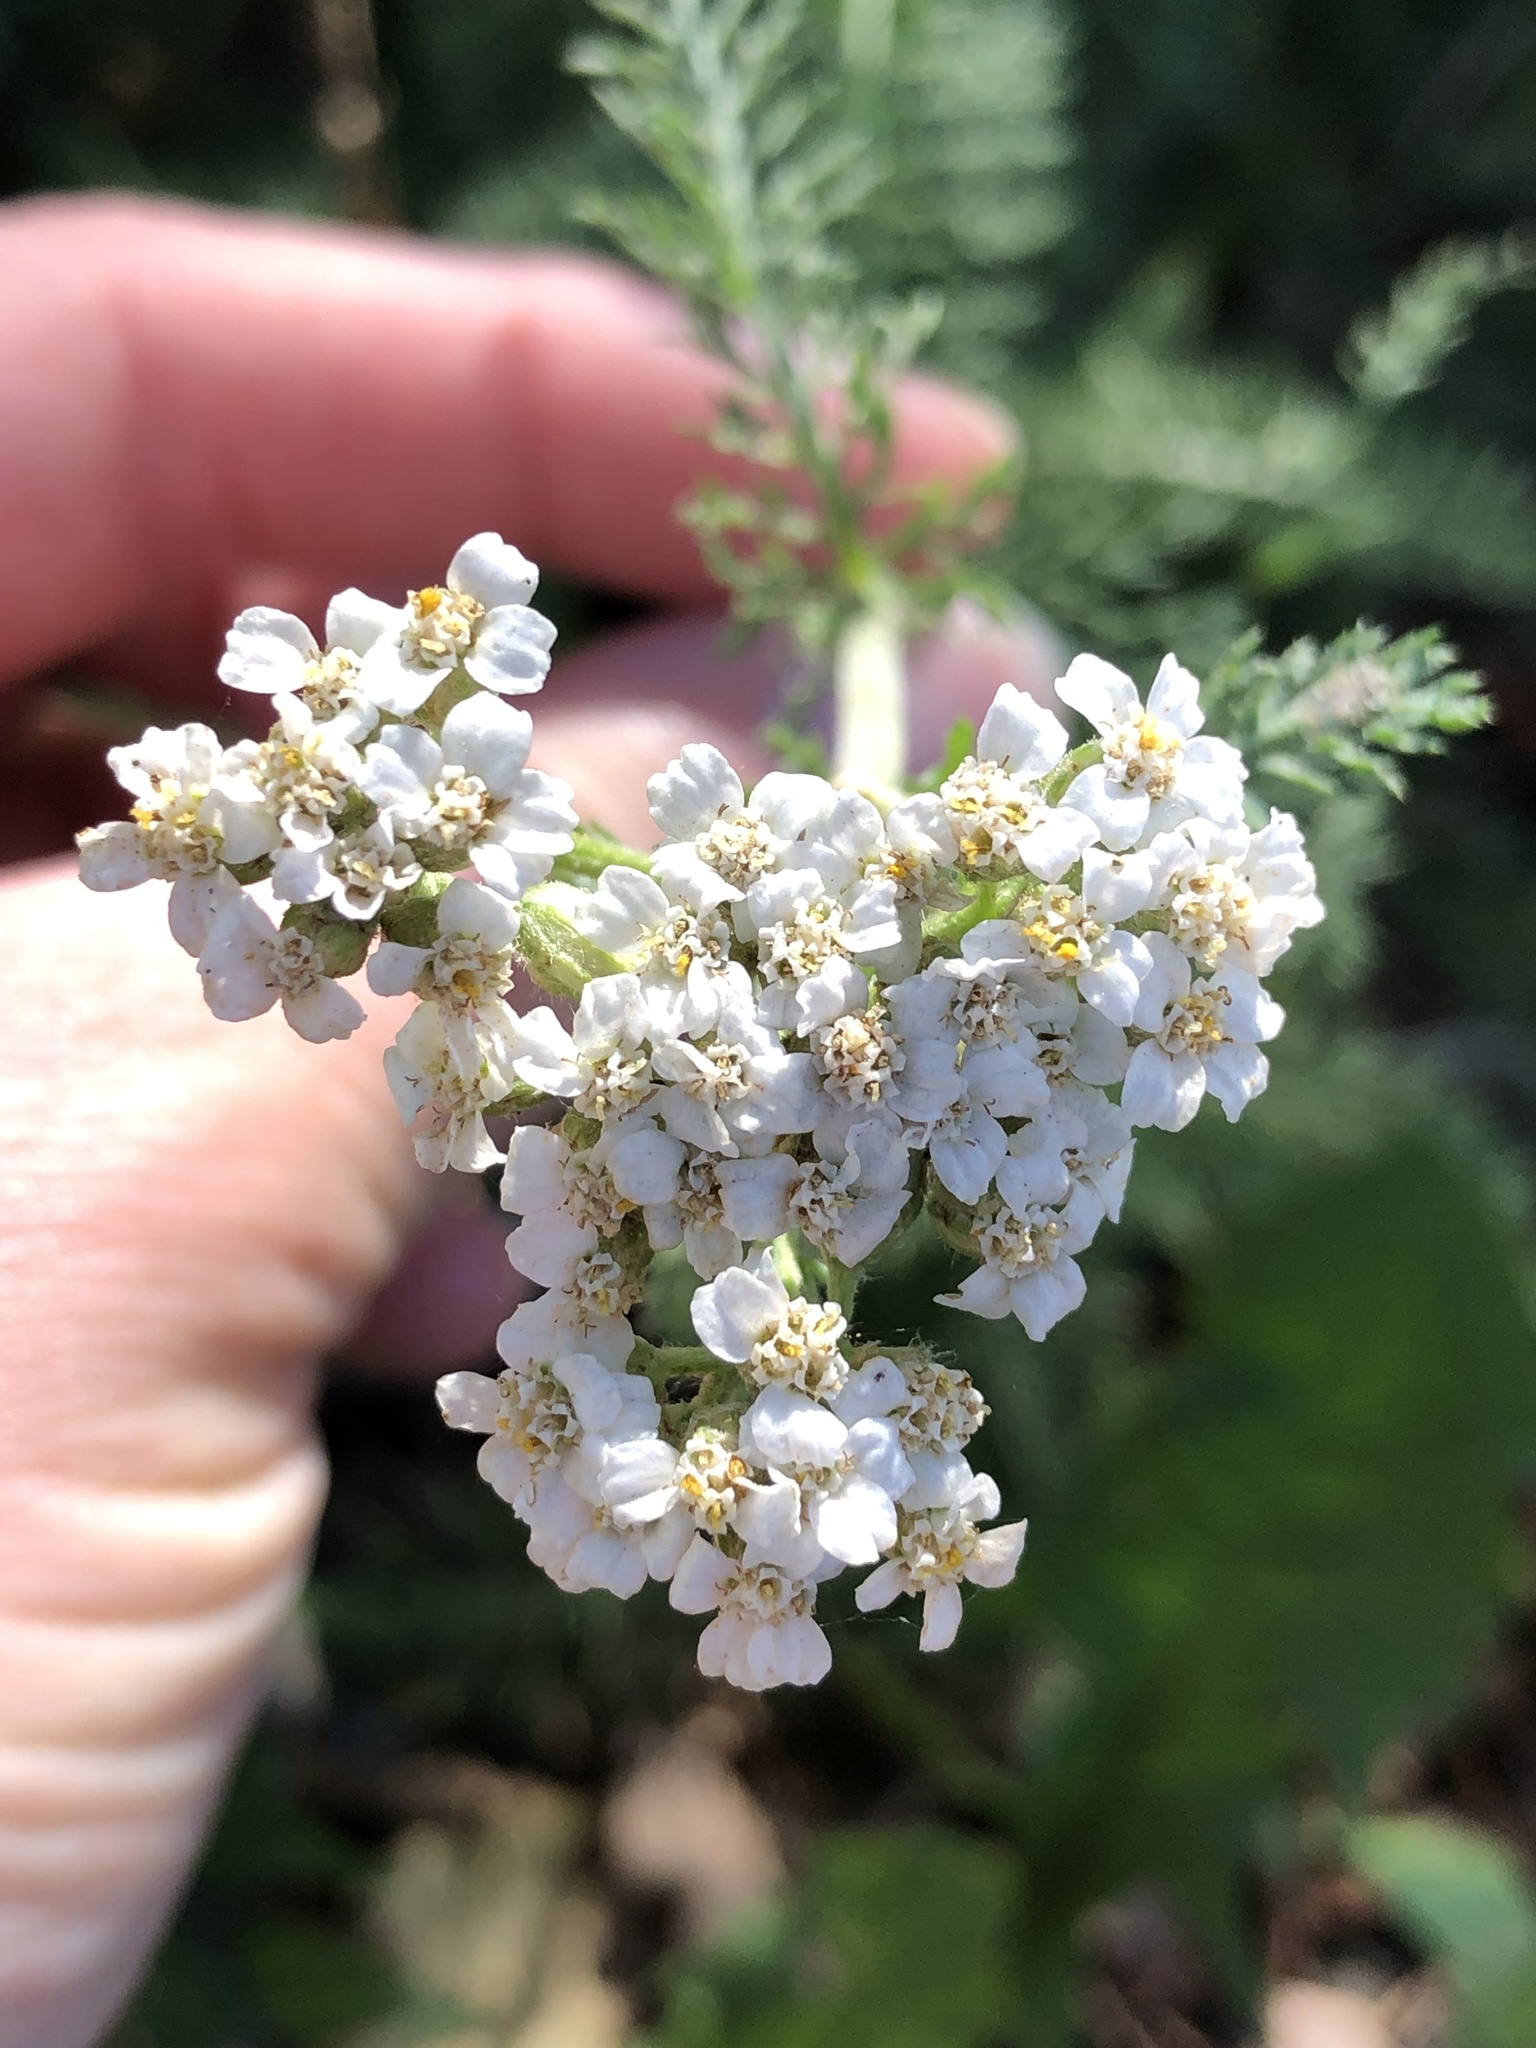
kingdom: Plantae
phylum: Tracheophyta
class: Magnoliopsida
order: Asterales
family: Asteraceae
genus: Achillea
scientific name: Achillea millefolium
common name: Yarrow
